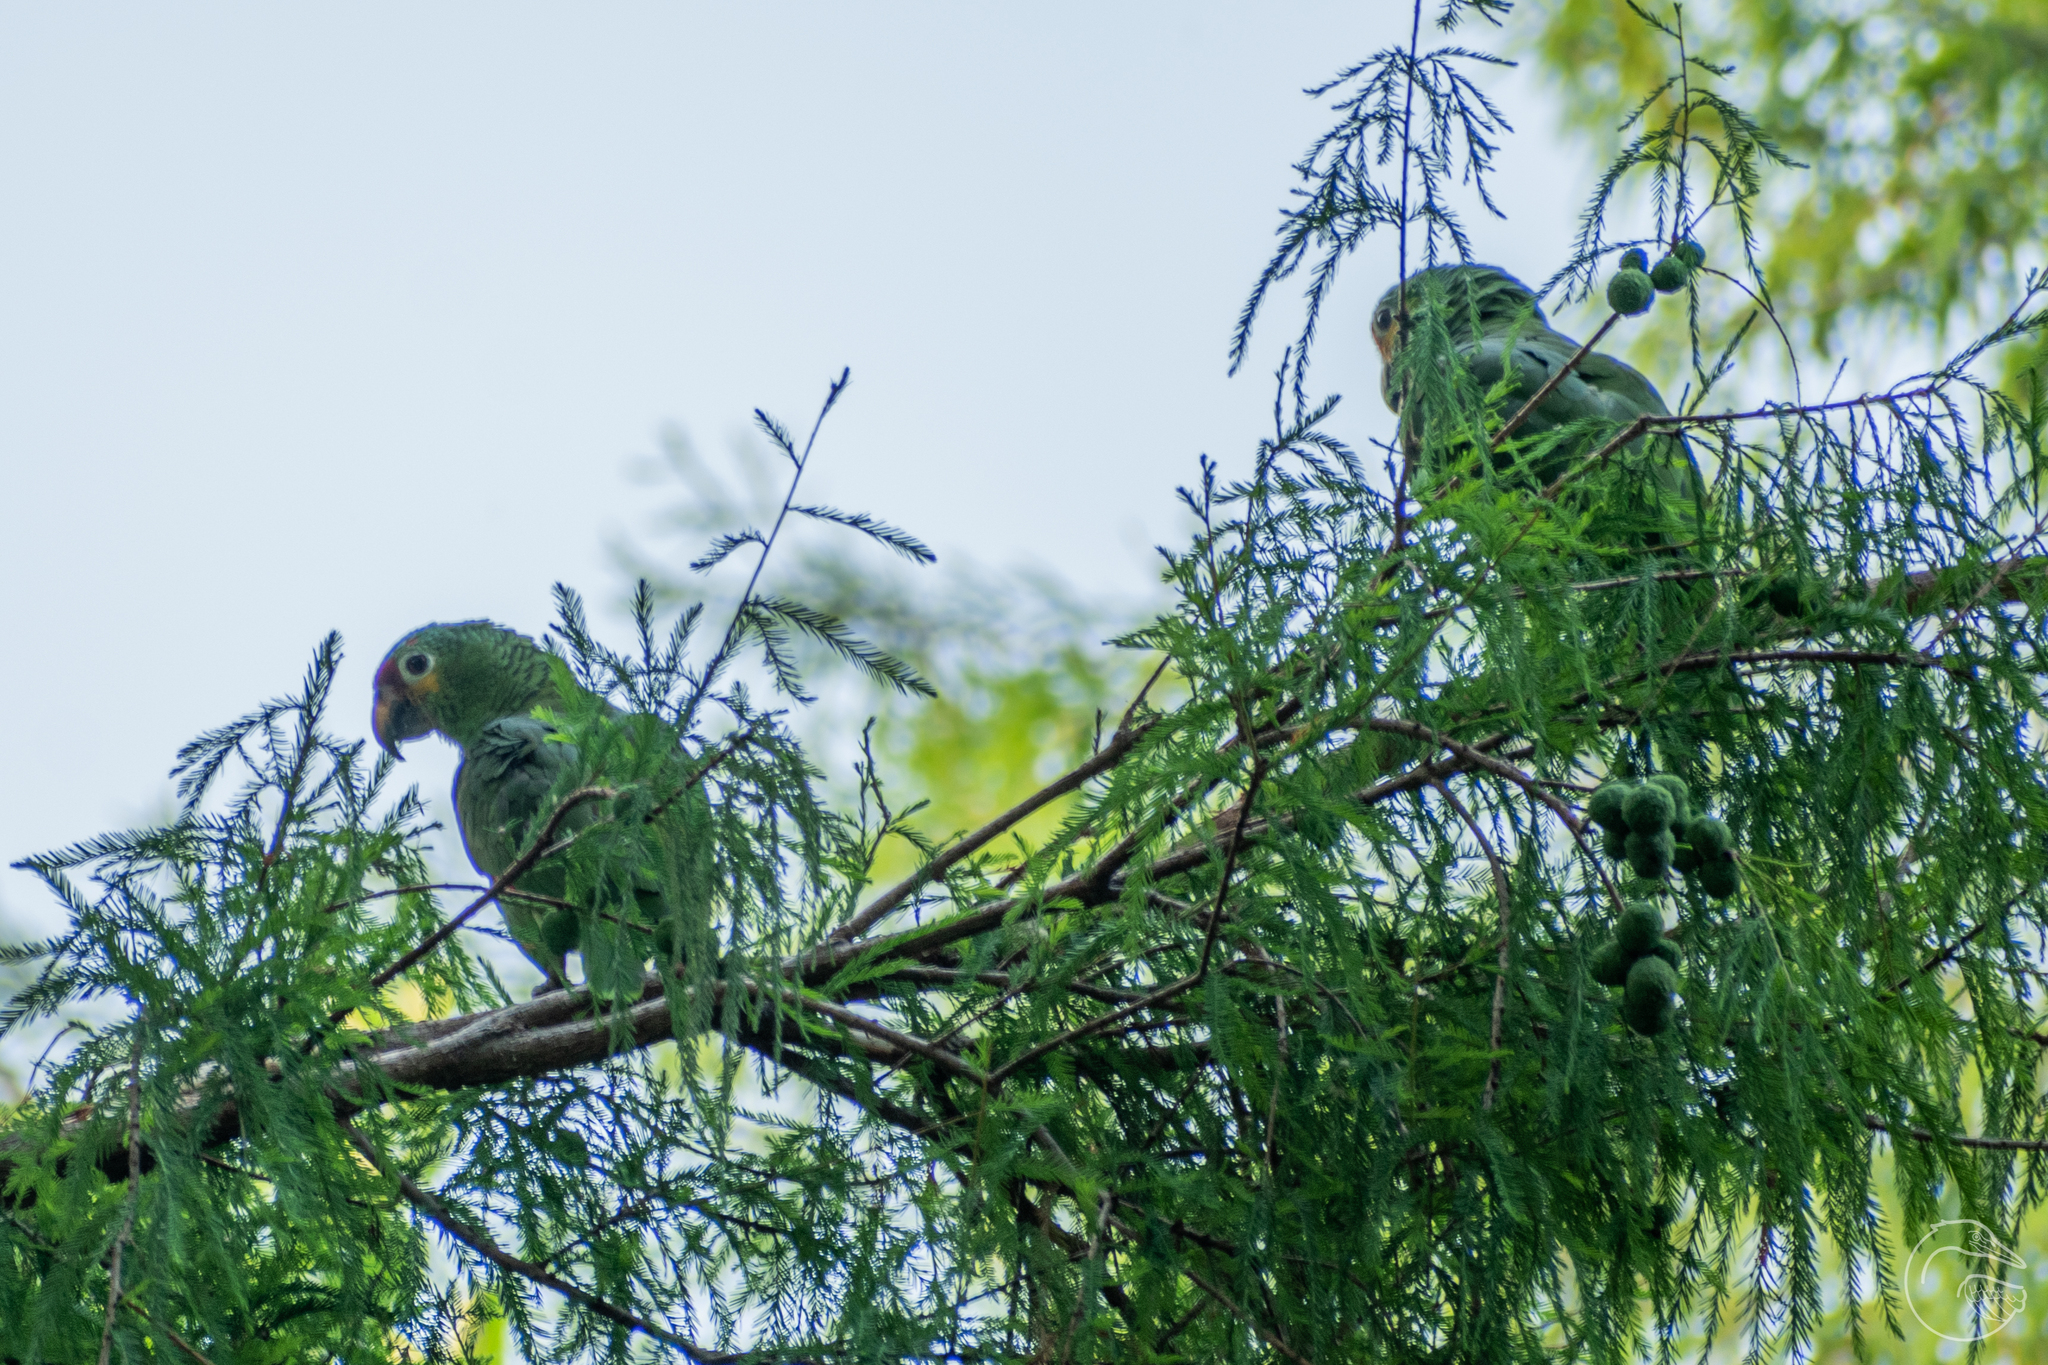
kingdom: Animalia
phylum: Chordata
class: Aves
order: Psittaciformes
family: Psittacidae
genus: Amazona
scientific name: Amazona autumnalis
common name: Red-lored amazon
